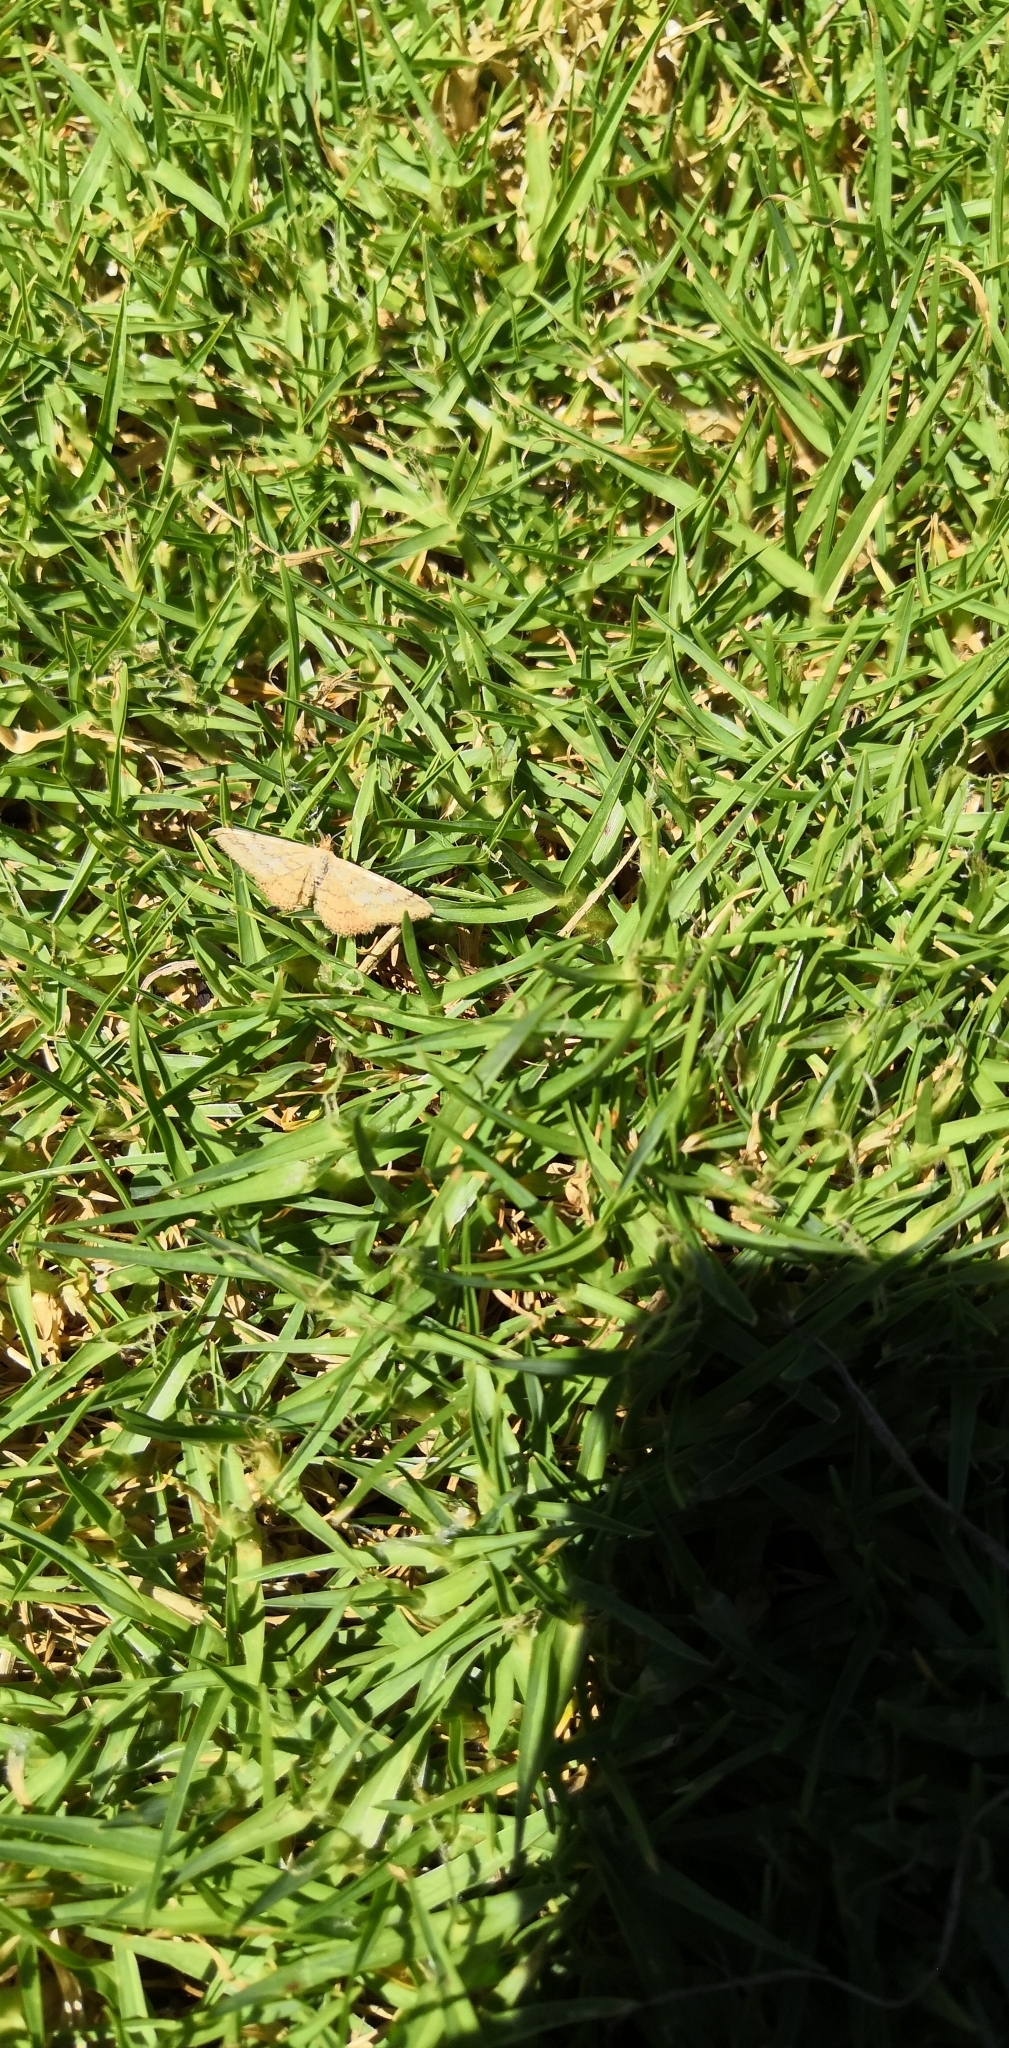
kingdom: Animalia
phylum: Arthropoda
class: Insecta
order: Lepidoptera
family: Geometridae
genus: Scopula
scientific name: Scopula rubraria
